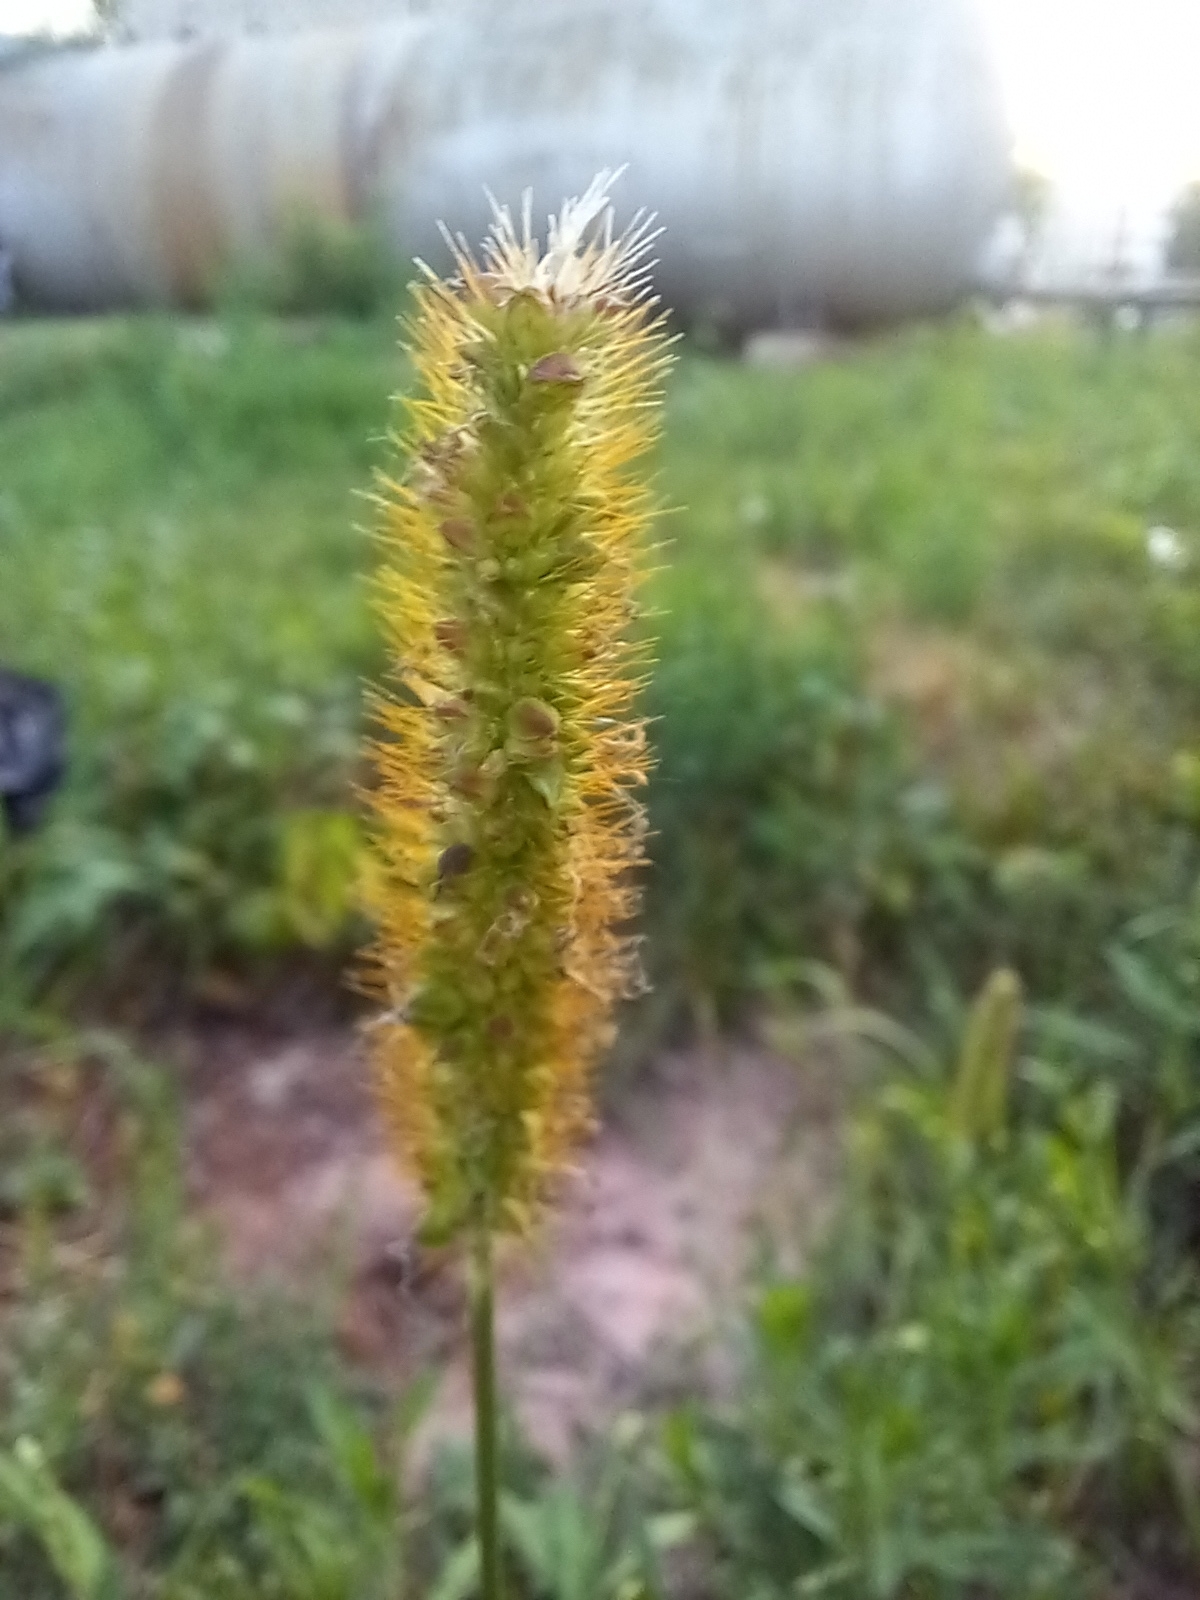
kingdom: Plantae
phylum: Tracheophyta
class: Liliopsida
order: Poales
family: Poaceae
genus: Setaria
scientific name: Setaria pumila
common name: Yellow bristle-grass
